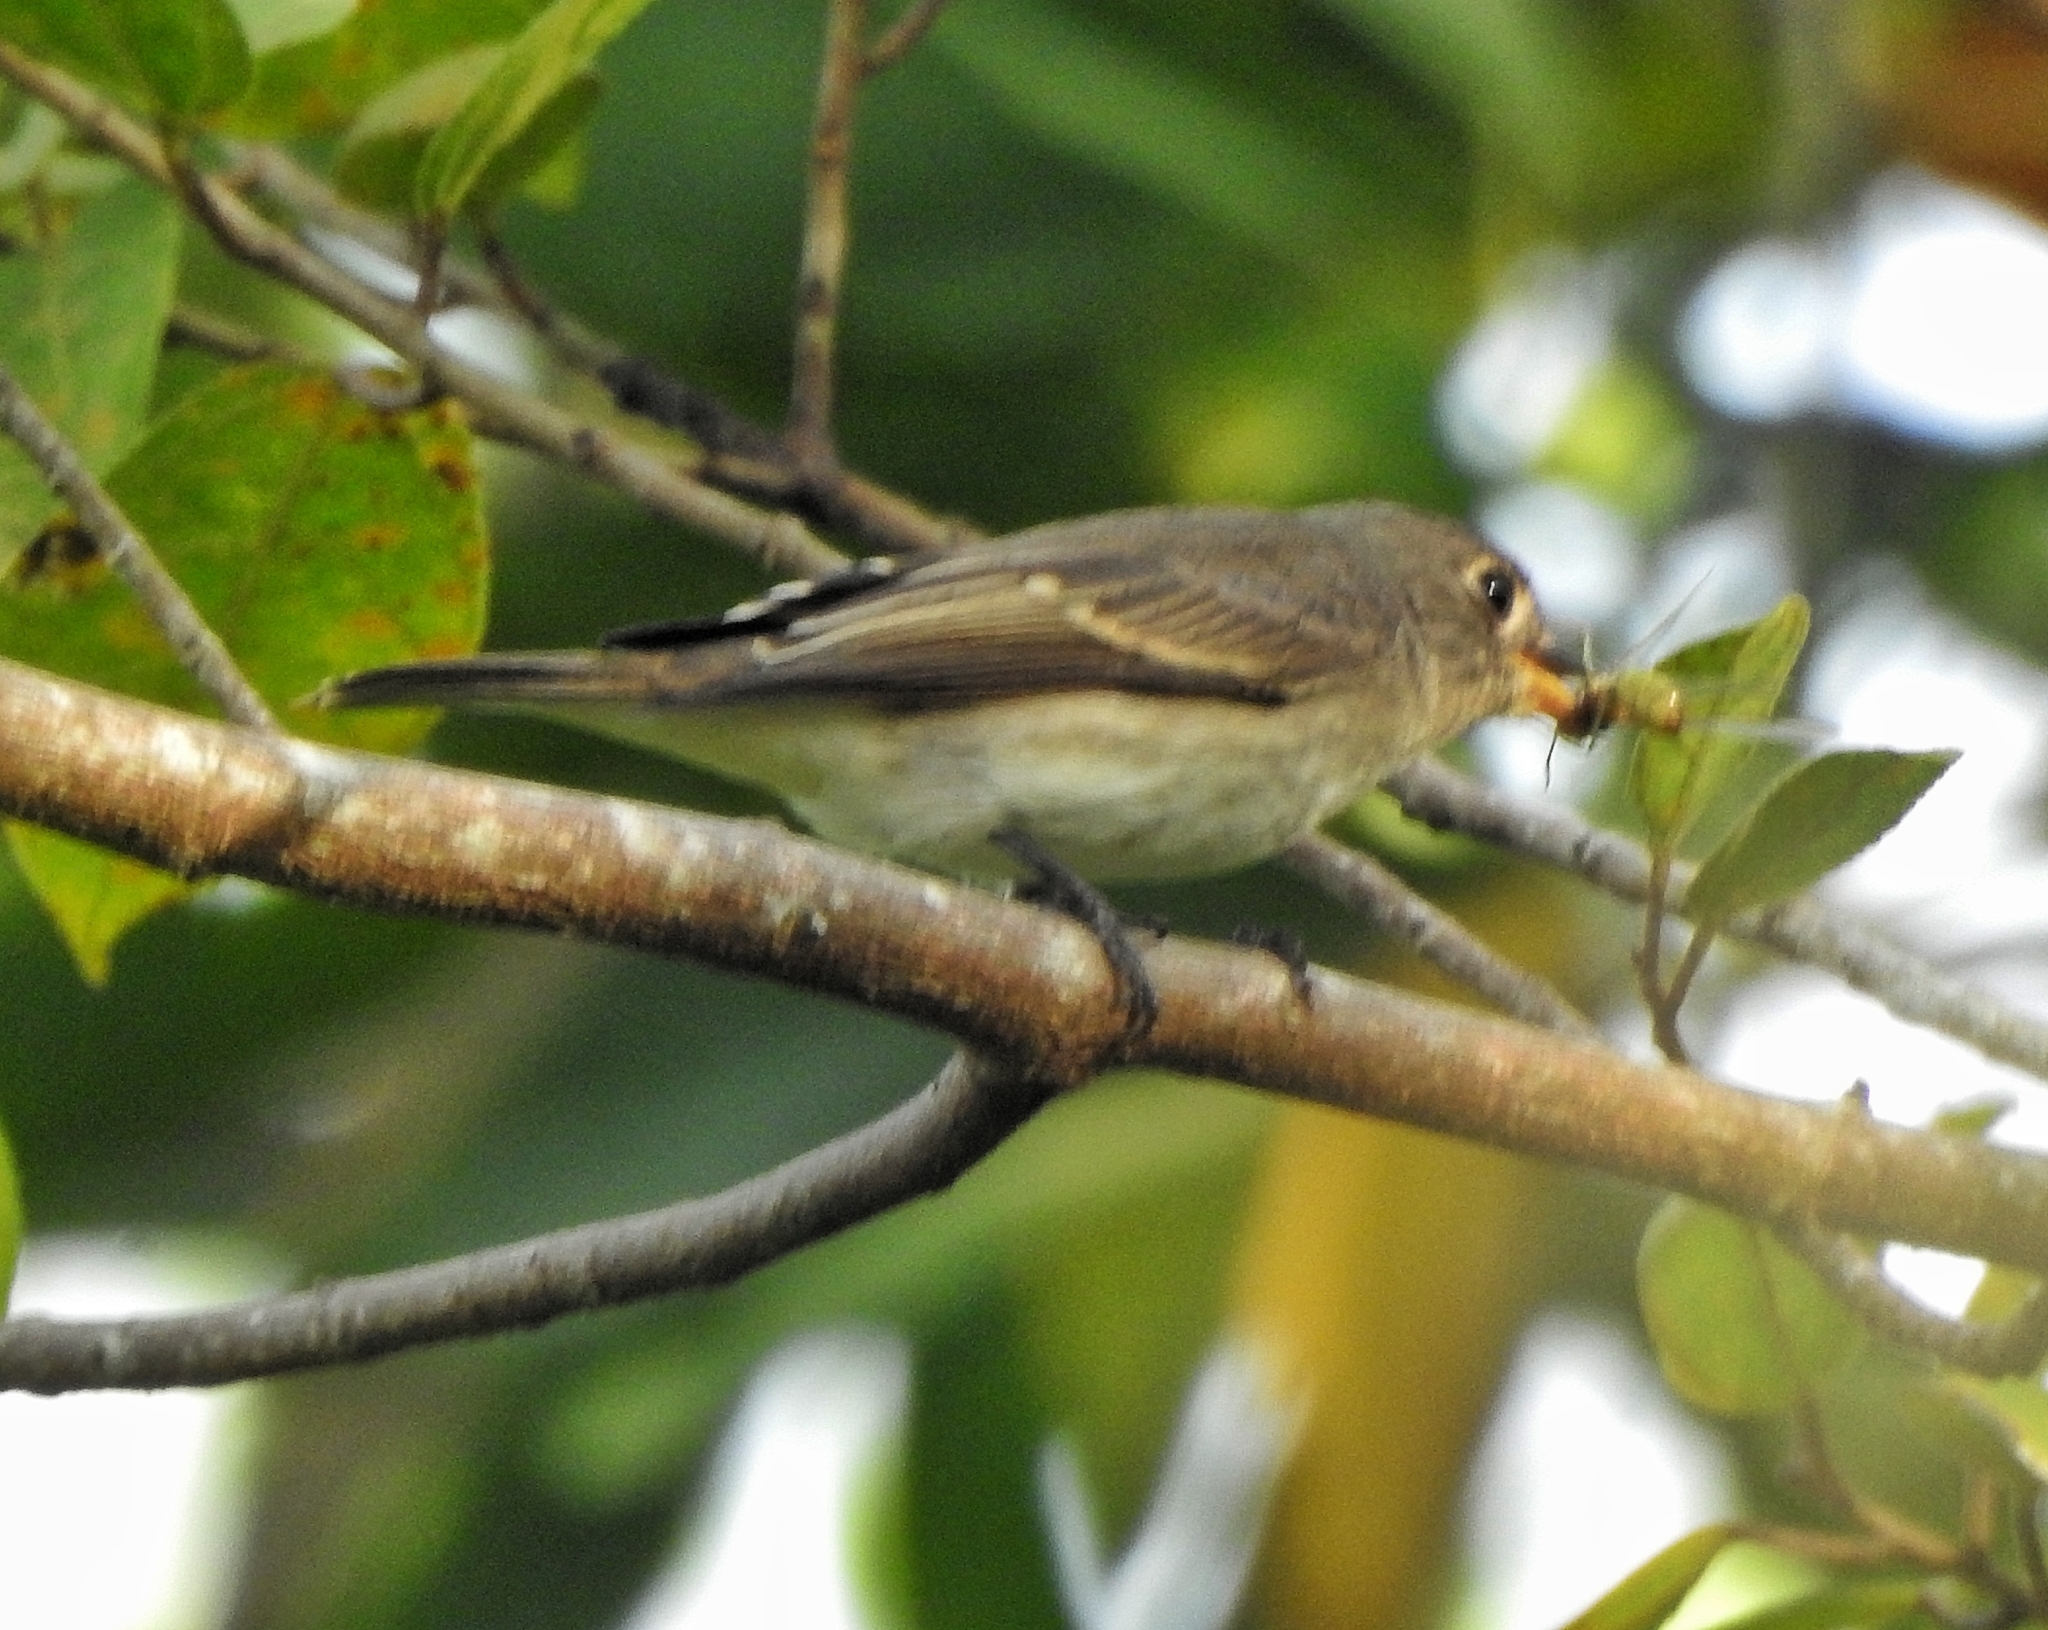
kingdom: Animalia
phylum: Chordata
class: Aves
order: Passeriformes
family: Muscicapidae
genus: Muscicapa
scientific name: Muscicapa latirostris
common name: Asian brown flycatcher
